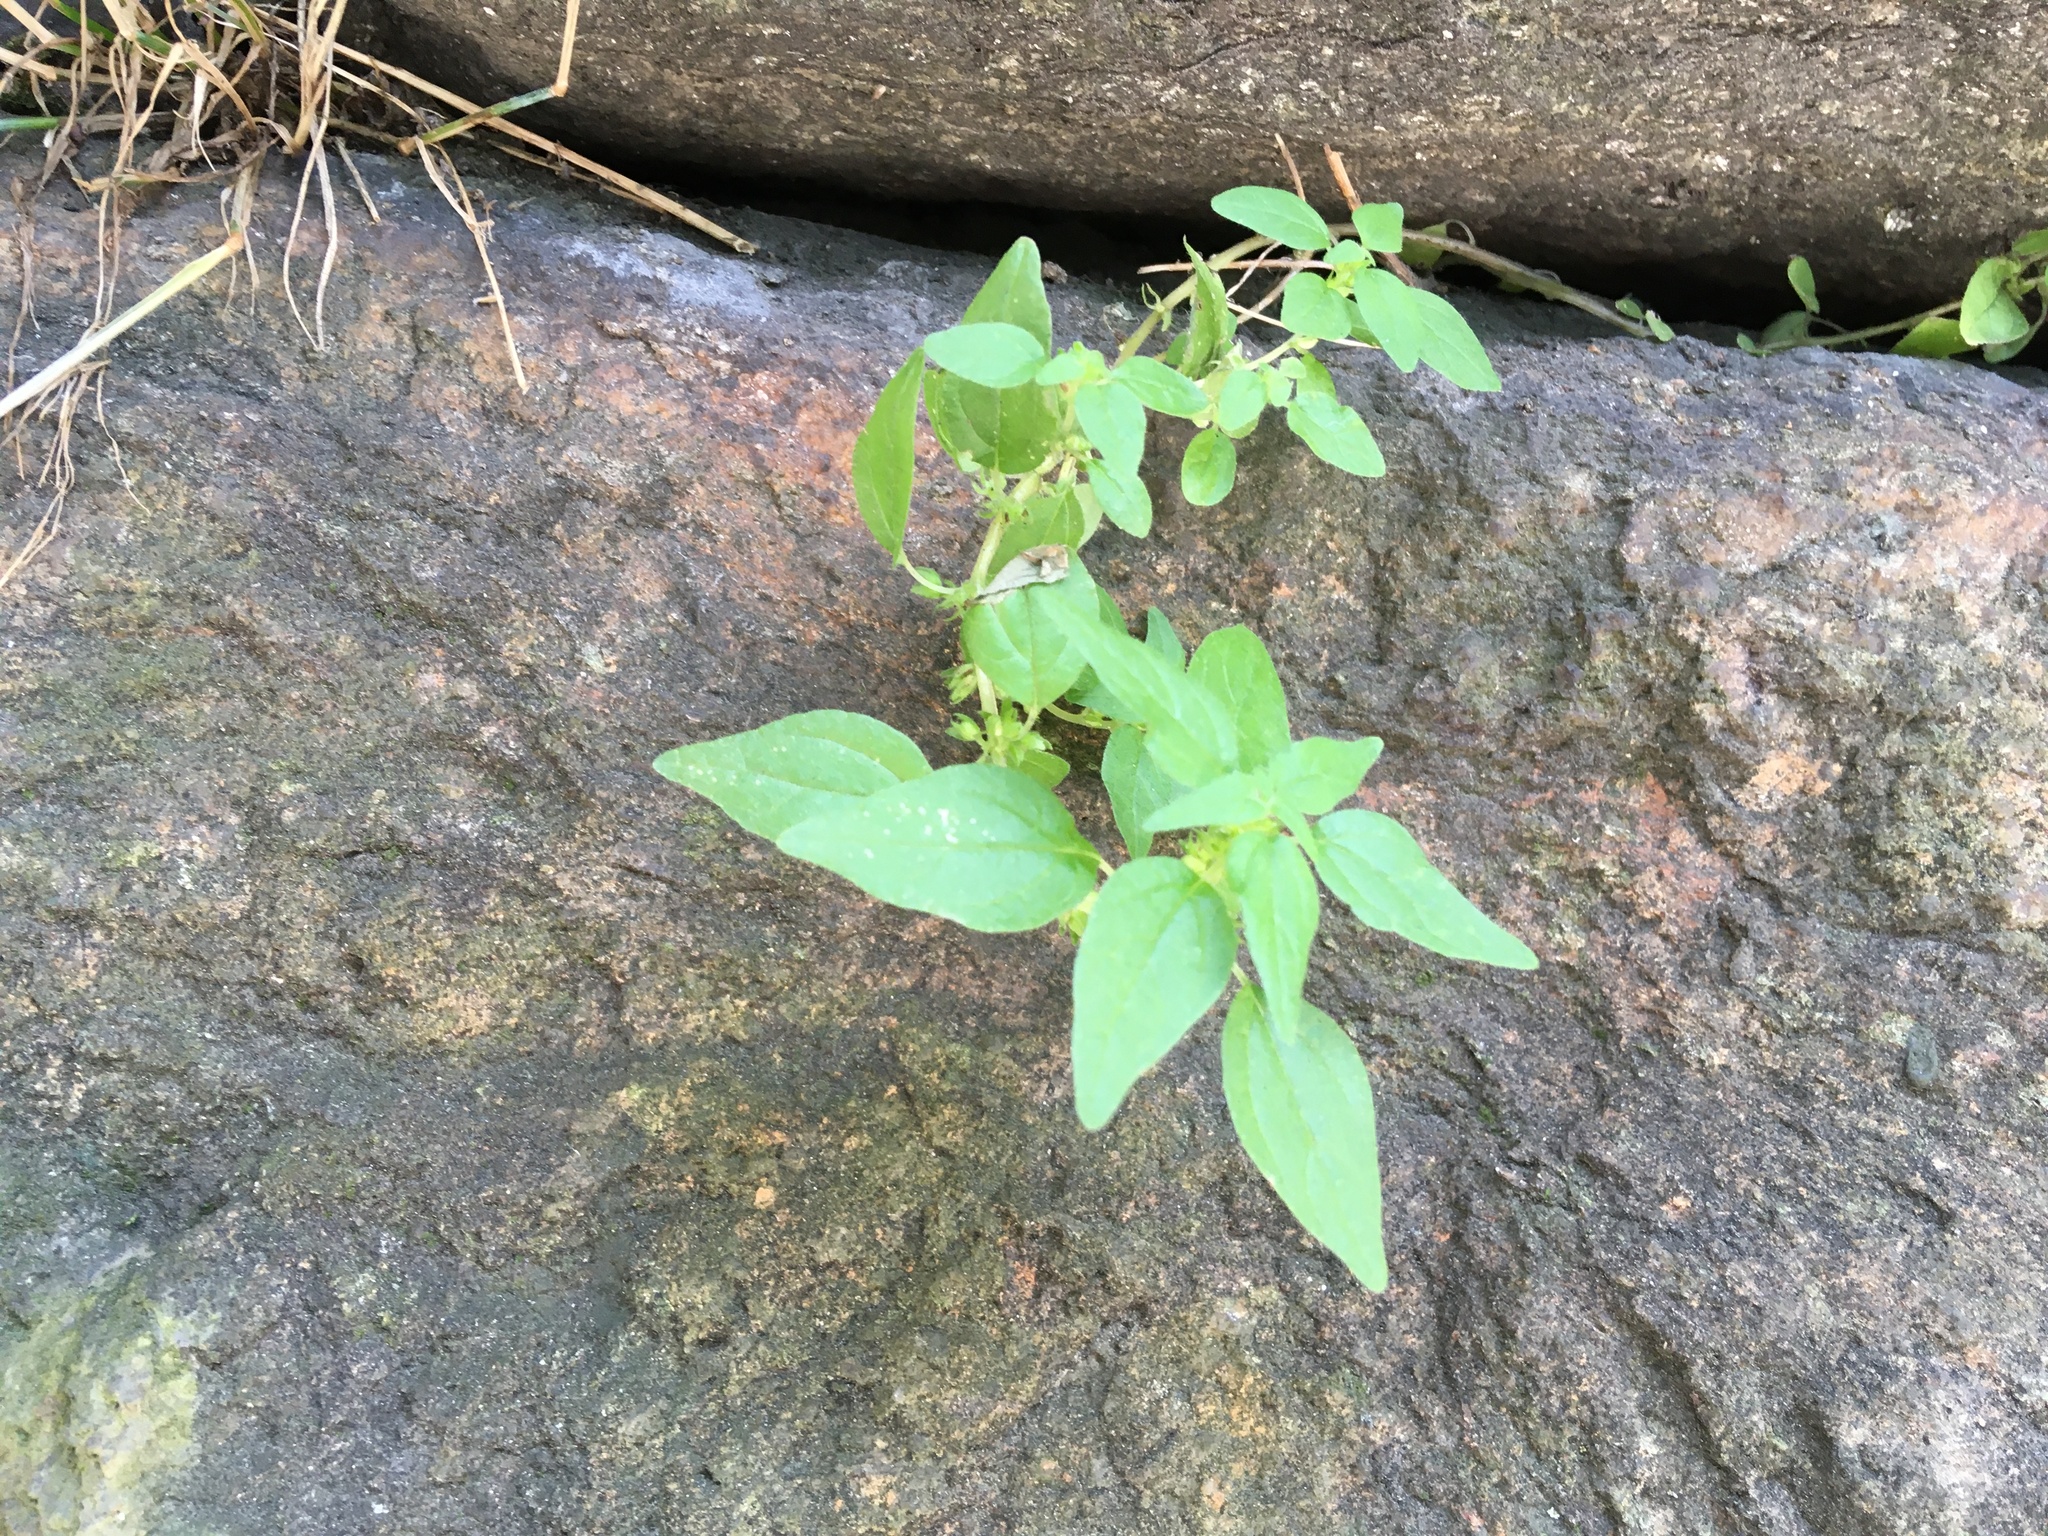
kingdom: Plantae
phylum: Tracheophyta
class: Magnoliopsida
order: Rosales
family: Urticaceae
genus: Parietaria
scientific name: Parietaria pensylvanica
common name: Pennsylvania pellitory
